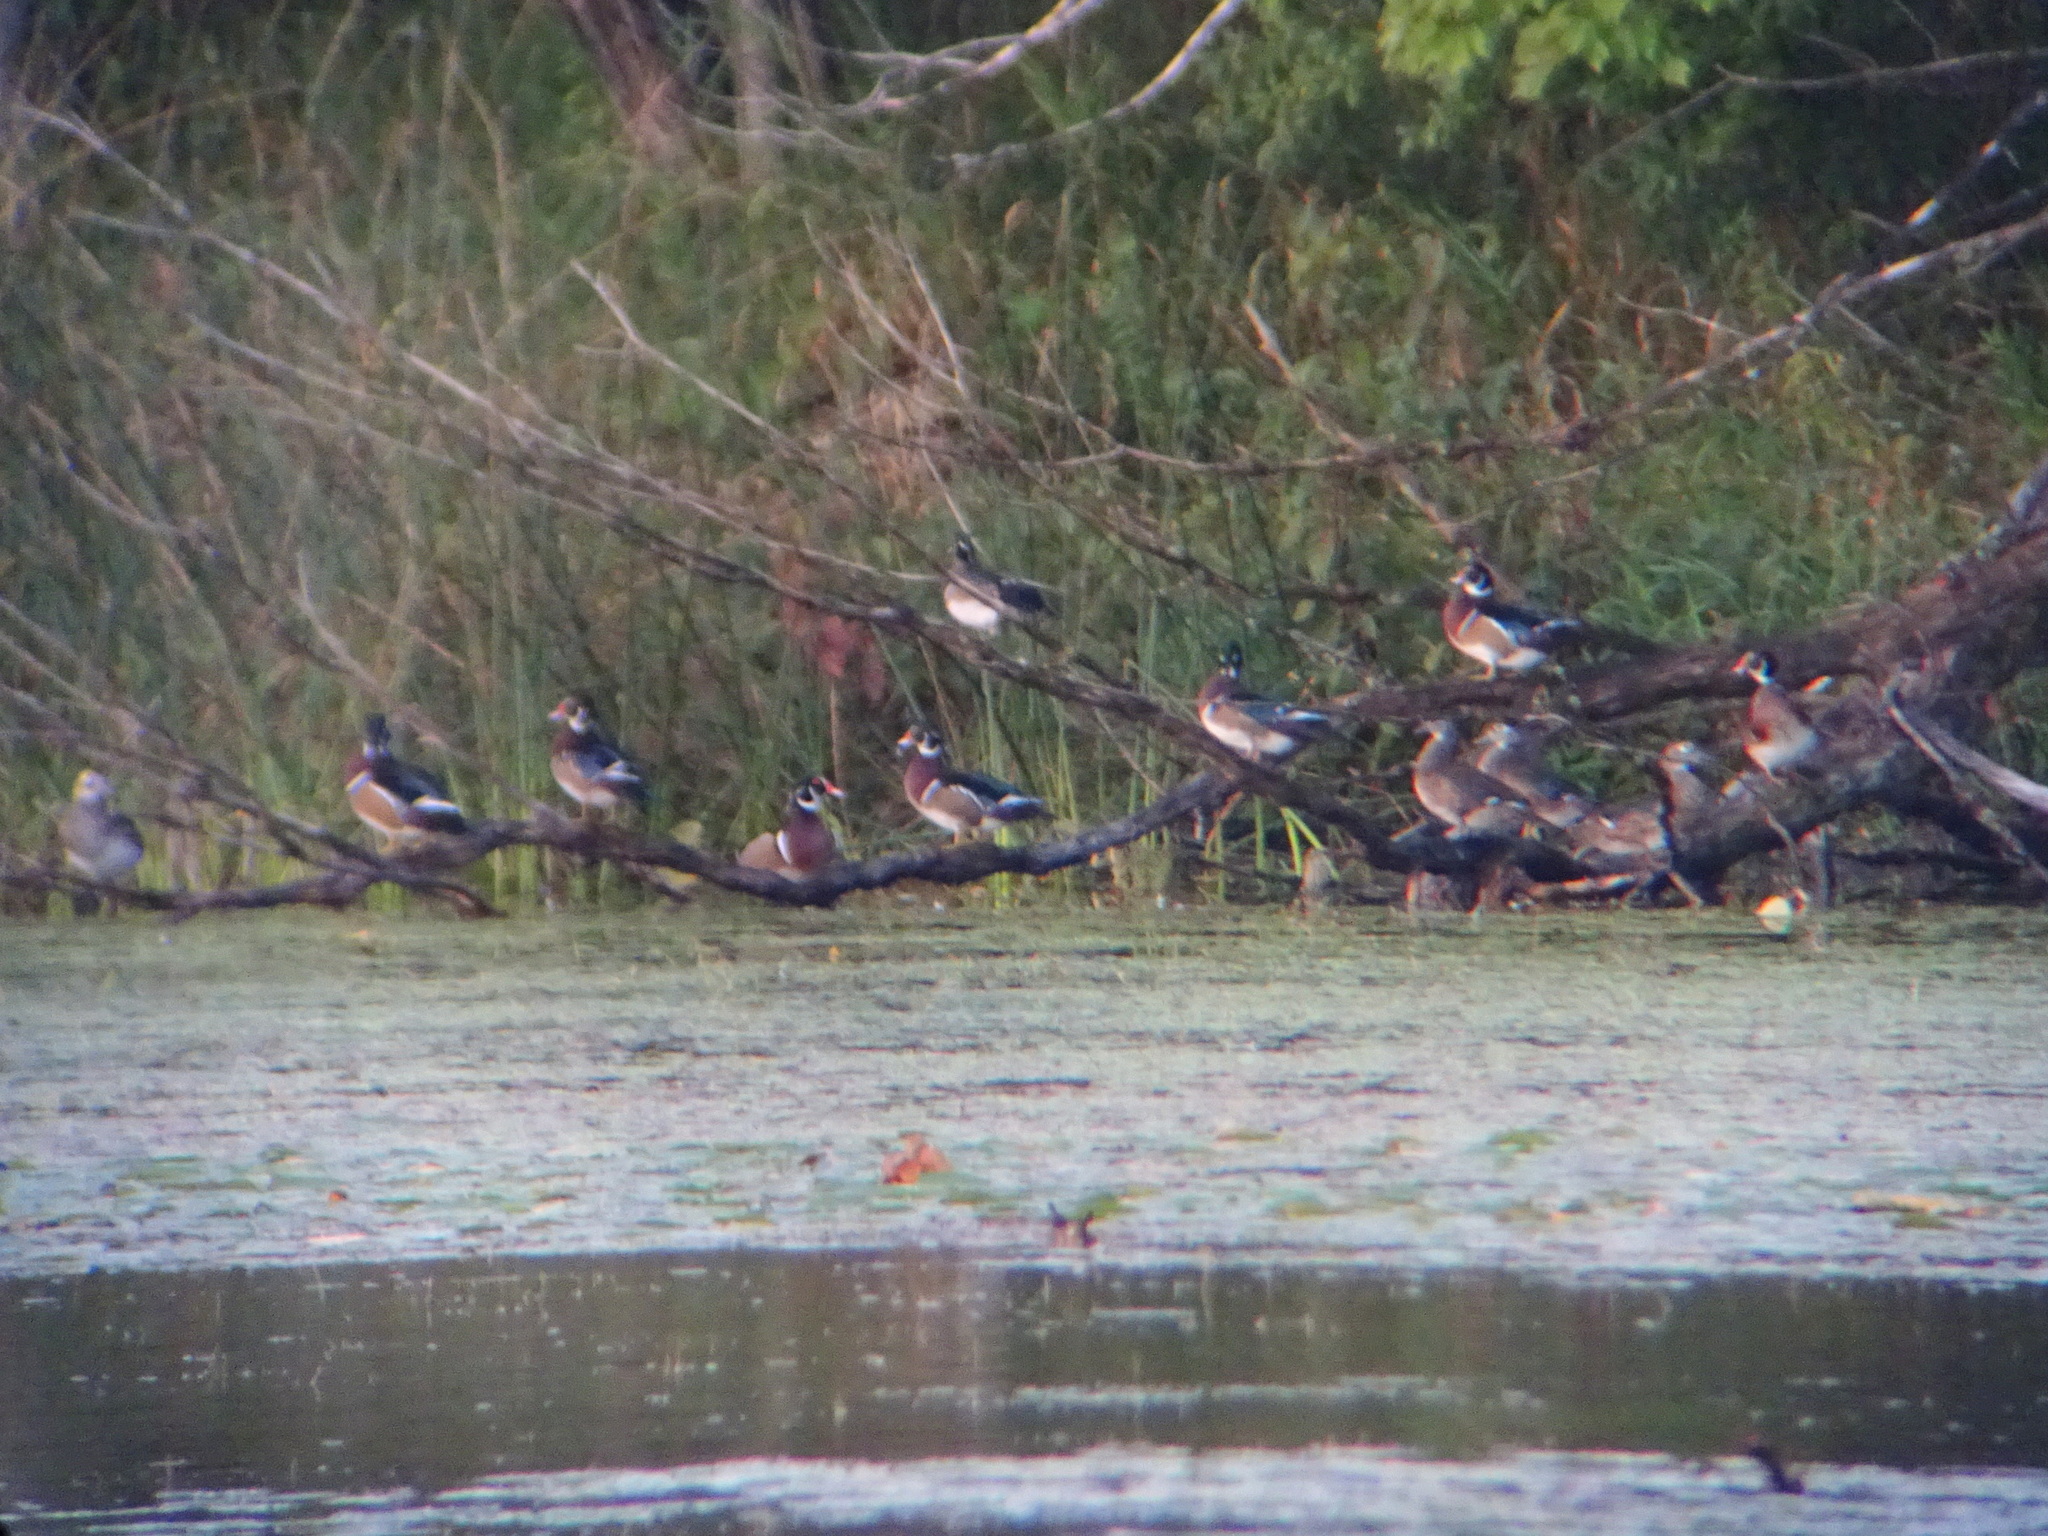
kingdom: Animalia
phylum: Chordata
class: Aves
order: Anseriformes
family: Anatidae
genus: Aix
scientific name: Aix sponsa
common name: Wood duck
